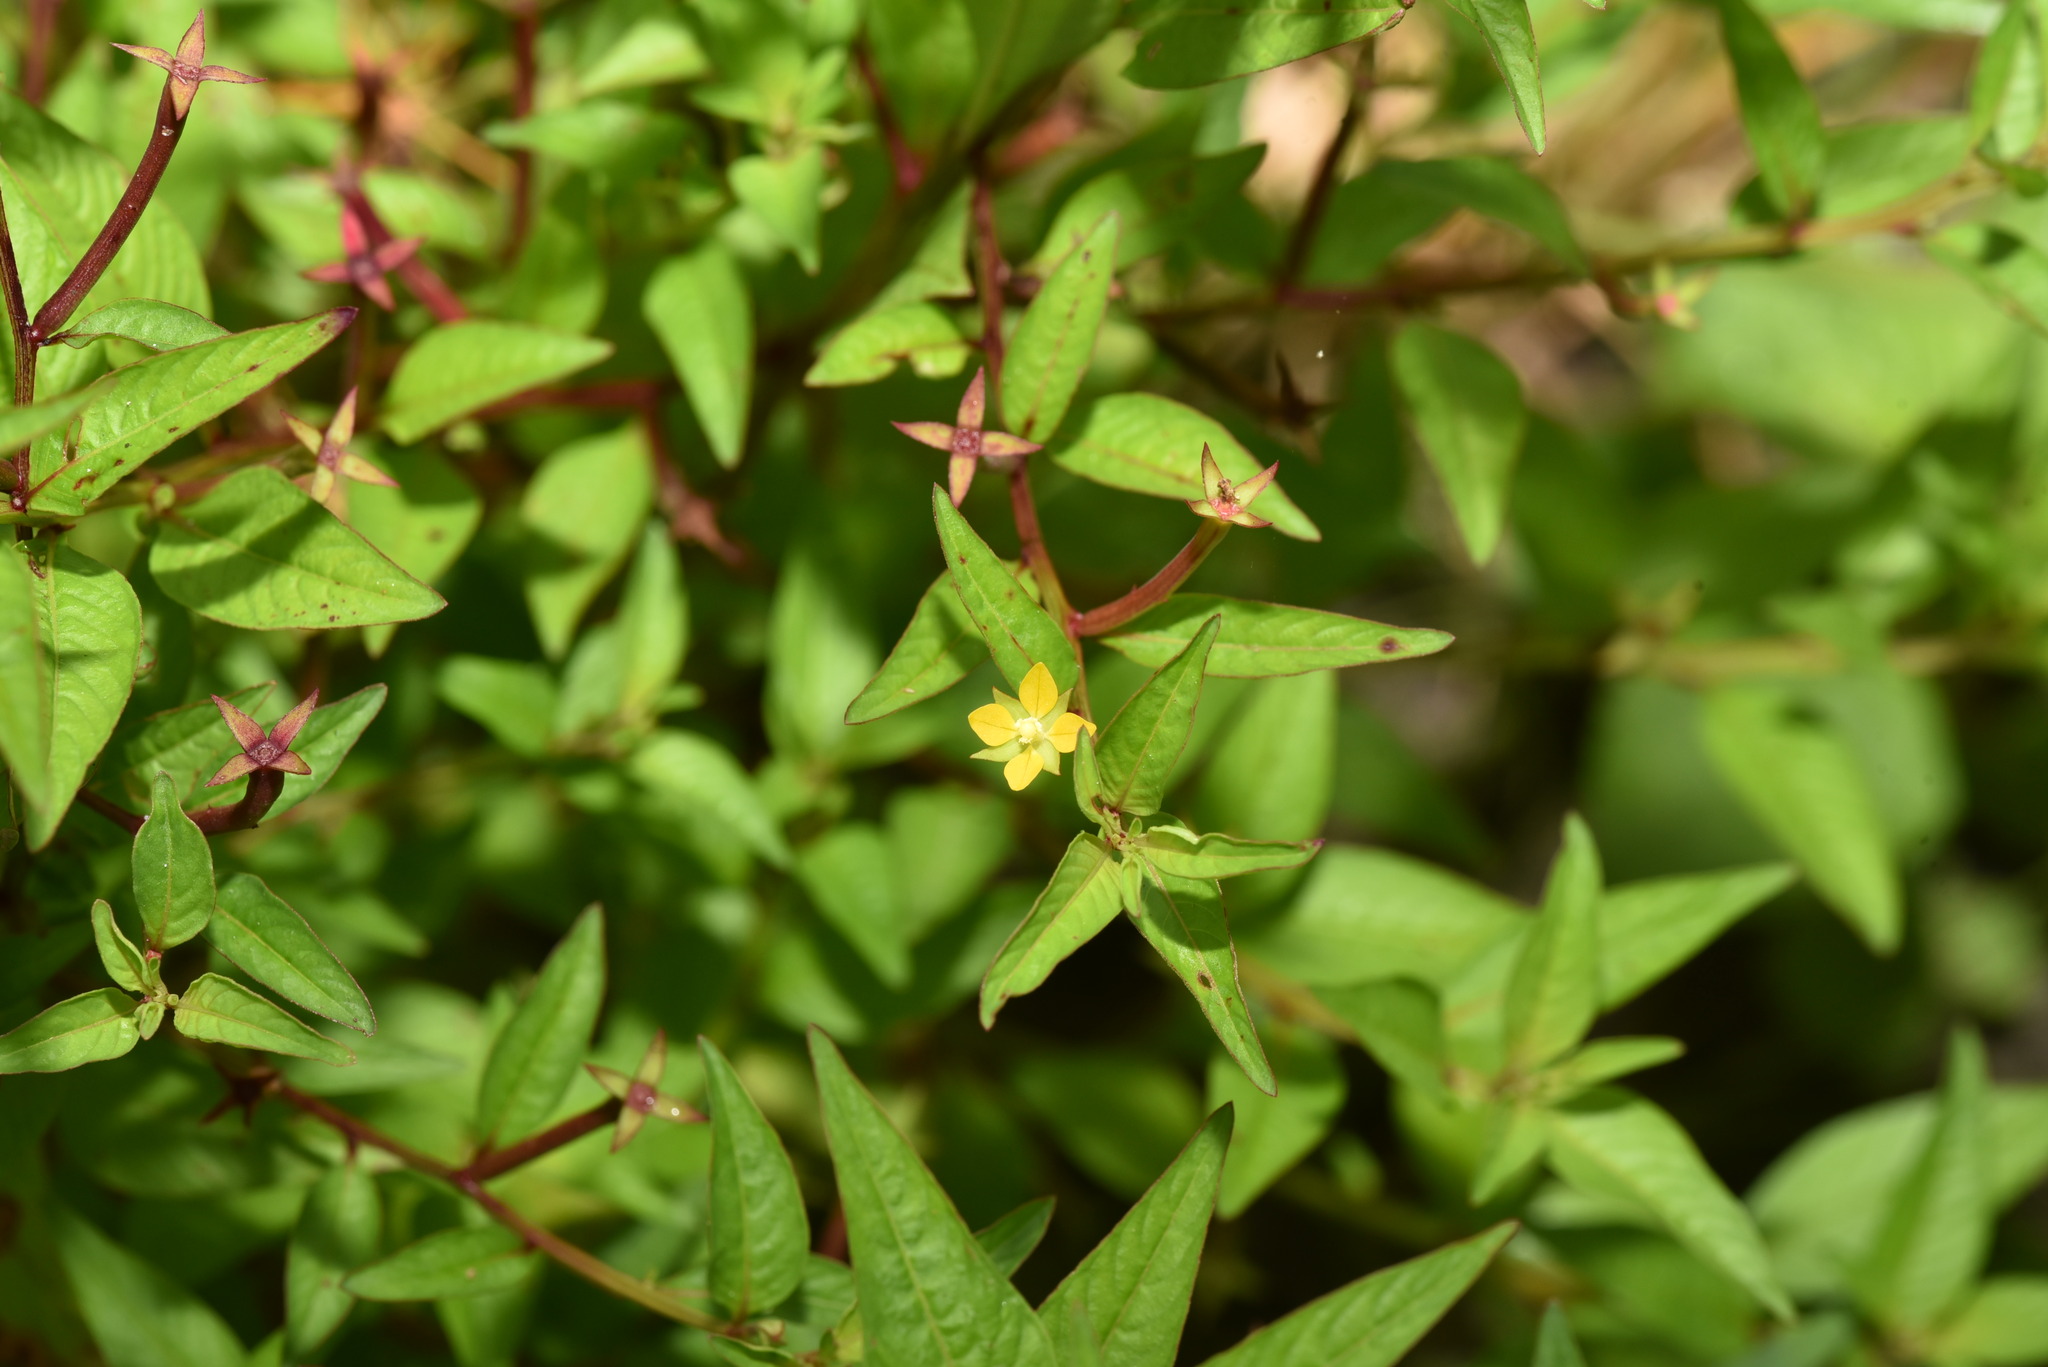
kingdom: Plantae
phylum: Tracheophyta
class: Magnoliopsida
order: Myrtales
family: Onagraceae
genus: Ludwigia
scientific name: Ludwigia hyssopifolia
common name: Linear leaf water primrose
